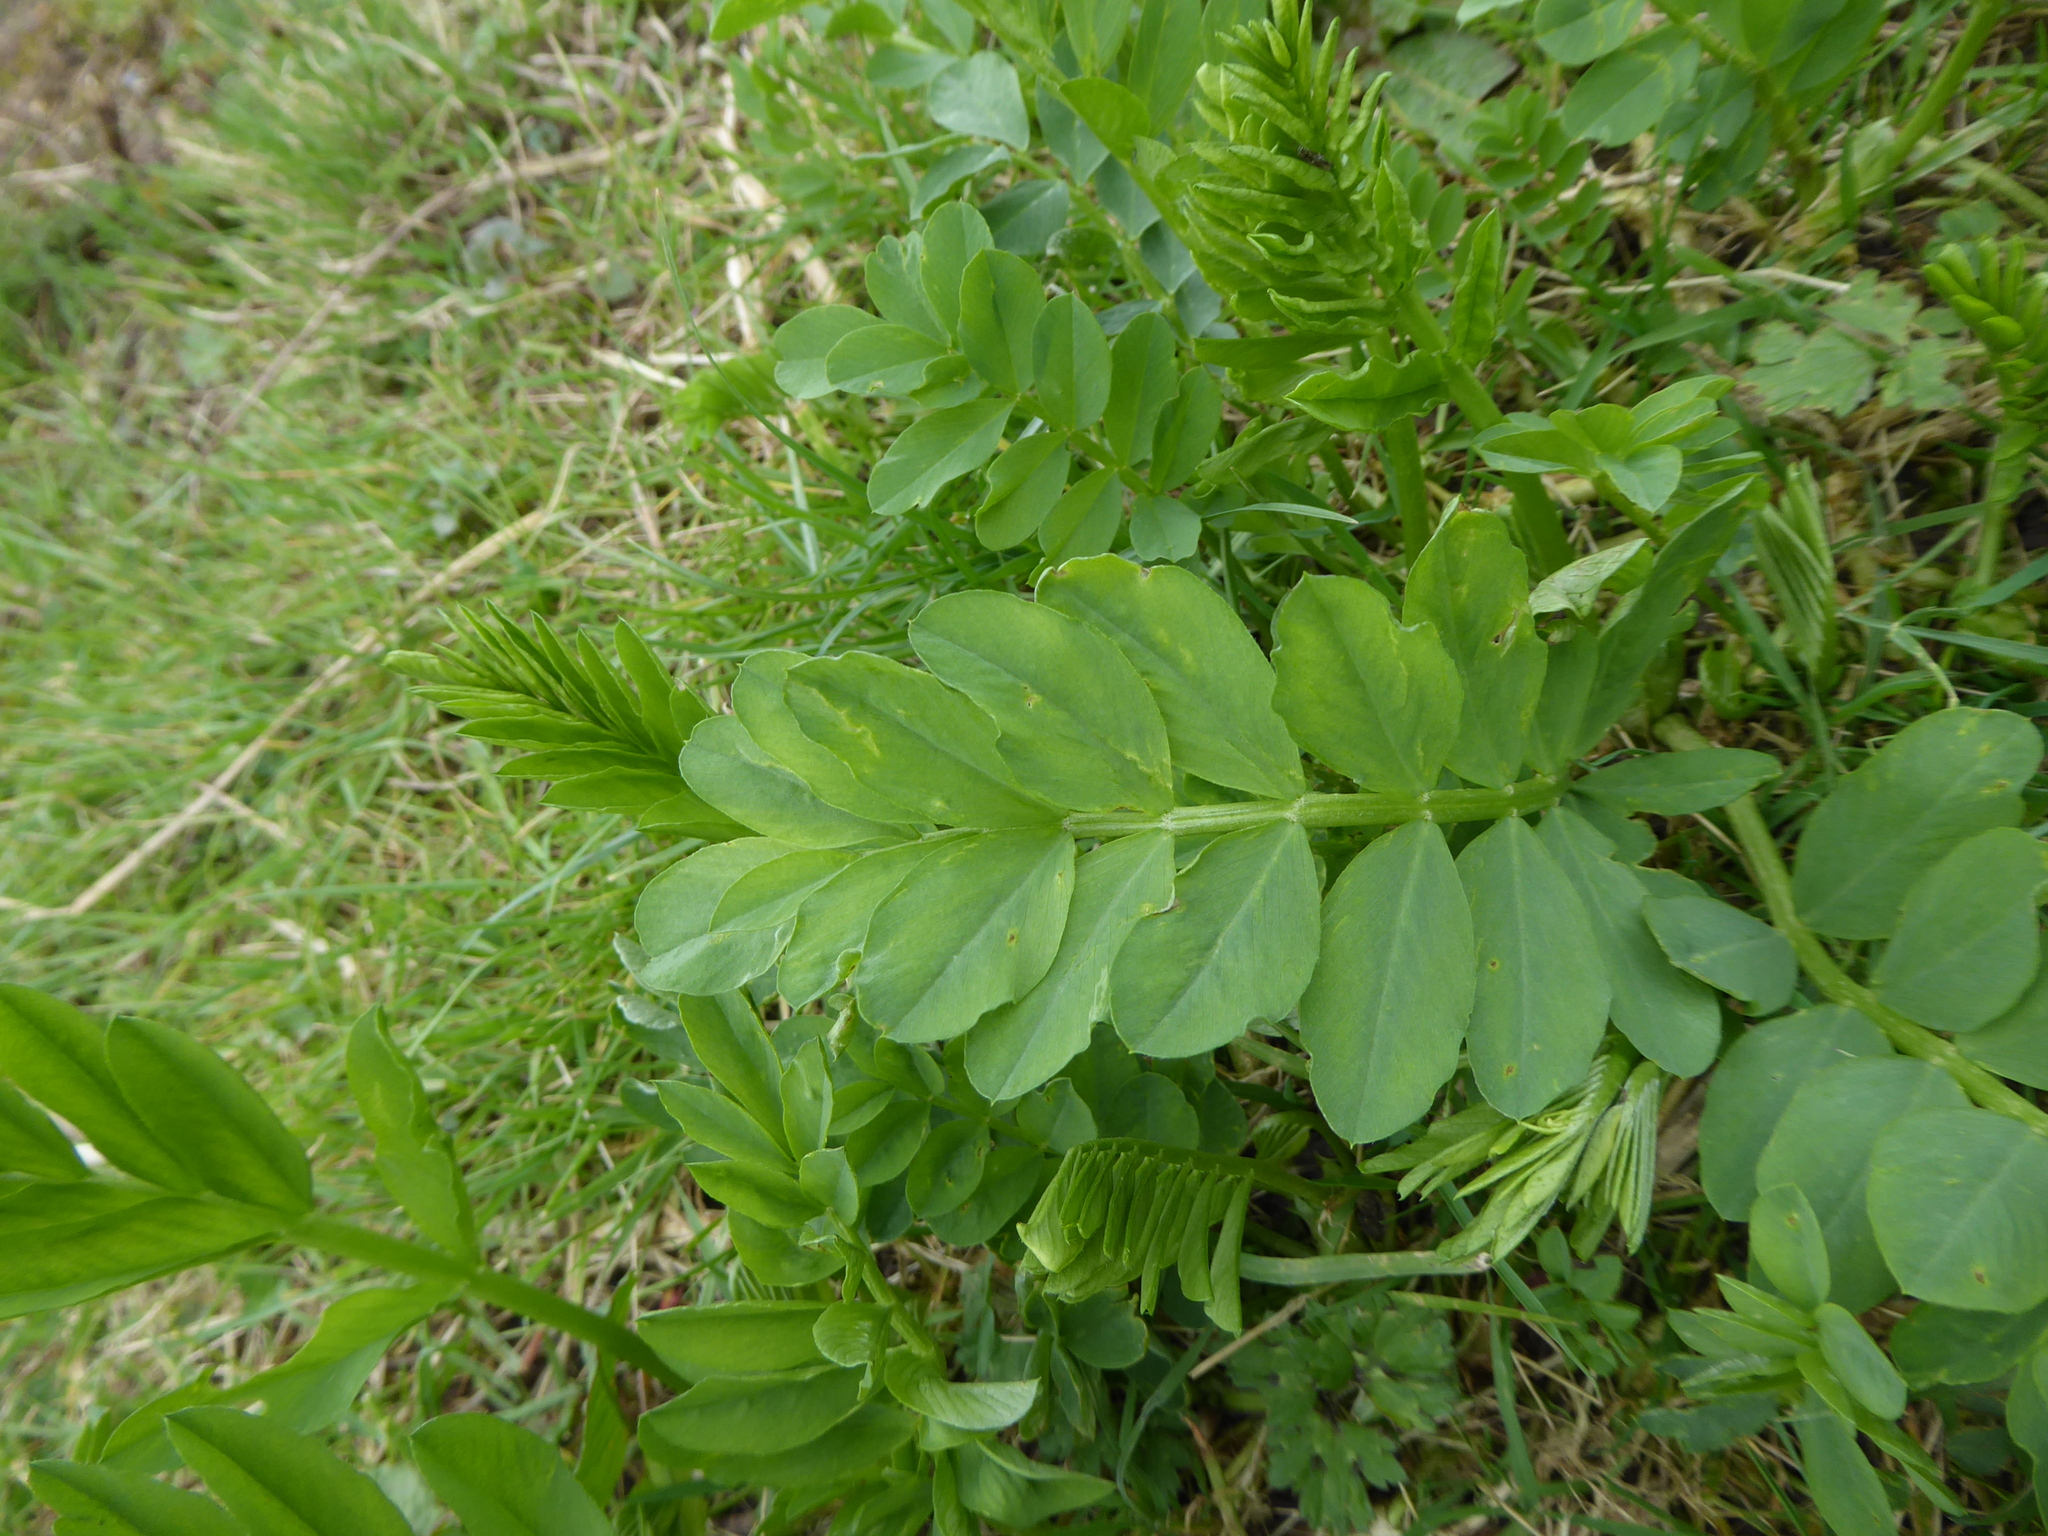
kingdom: Plantae
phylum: Tracheophyta
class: Magnoliopsida
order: Fabales
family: Fabaceae
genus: Galega
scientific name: Galega officinalis
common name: Goat's-rue
